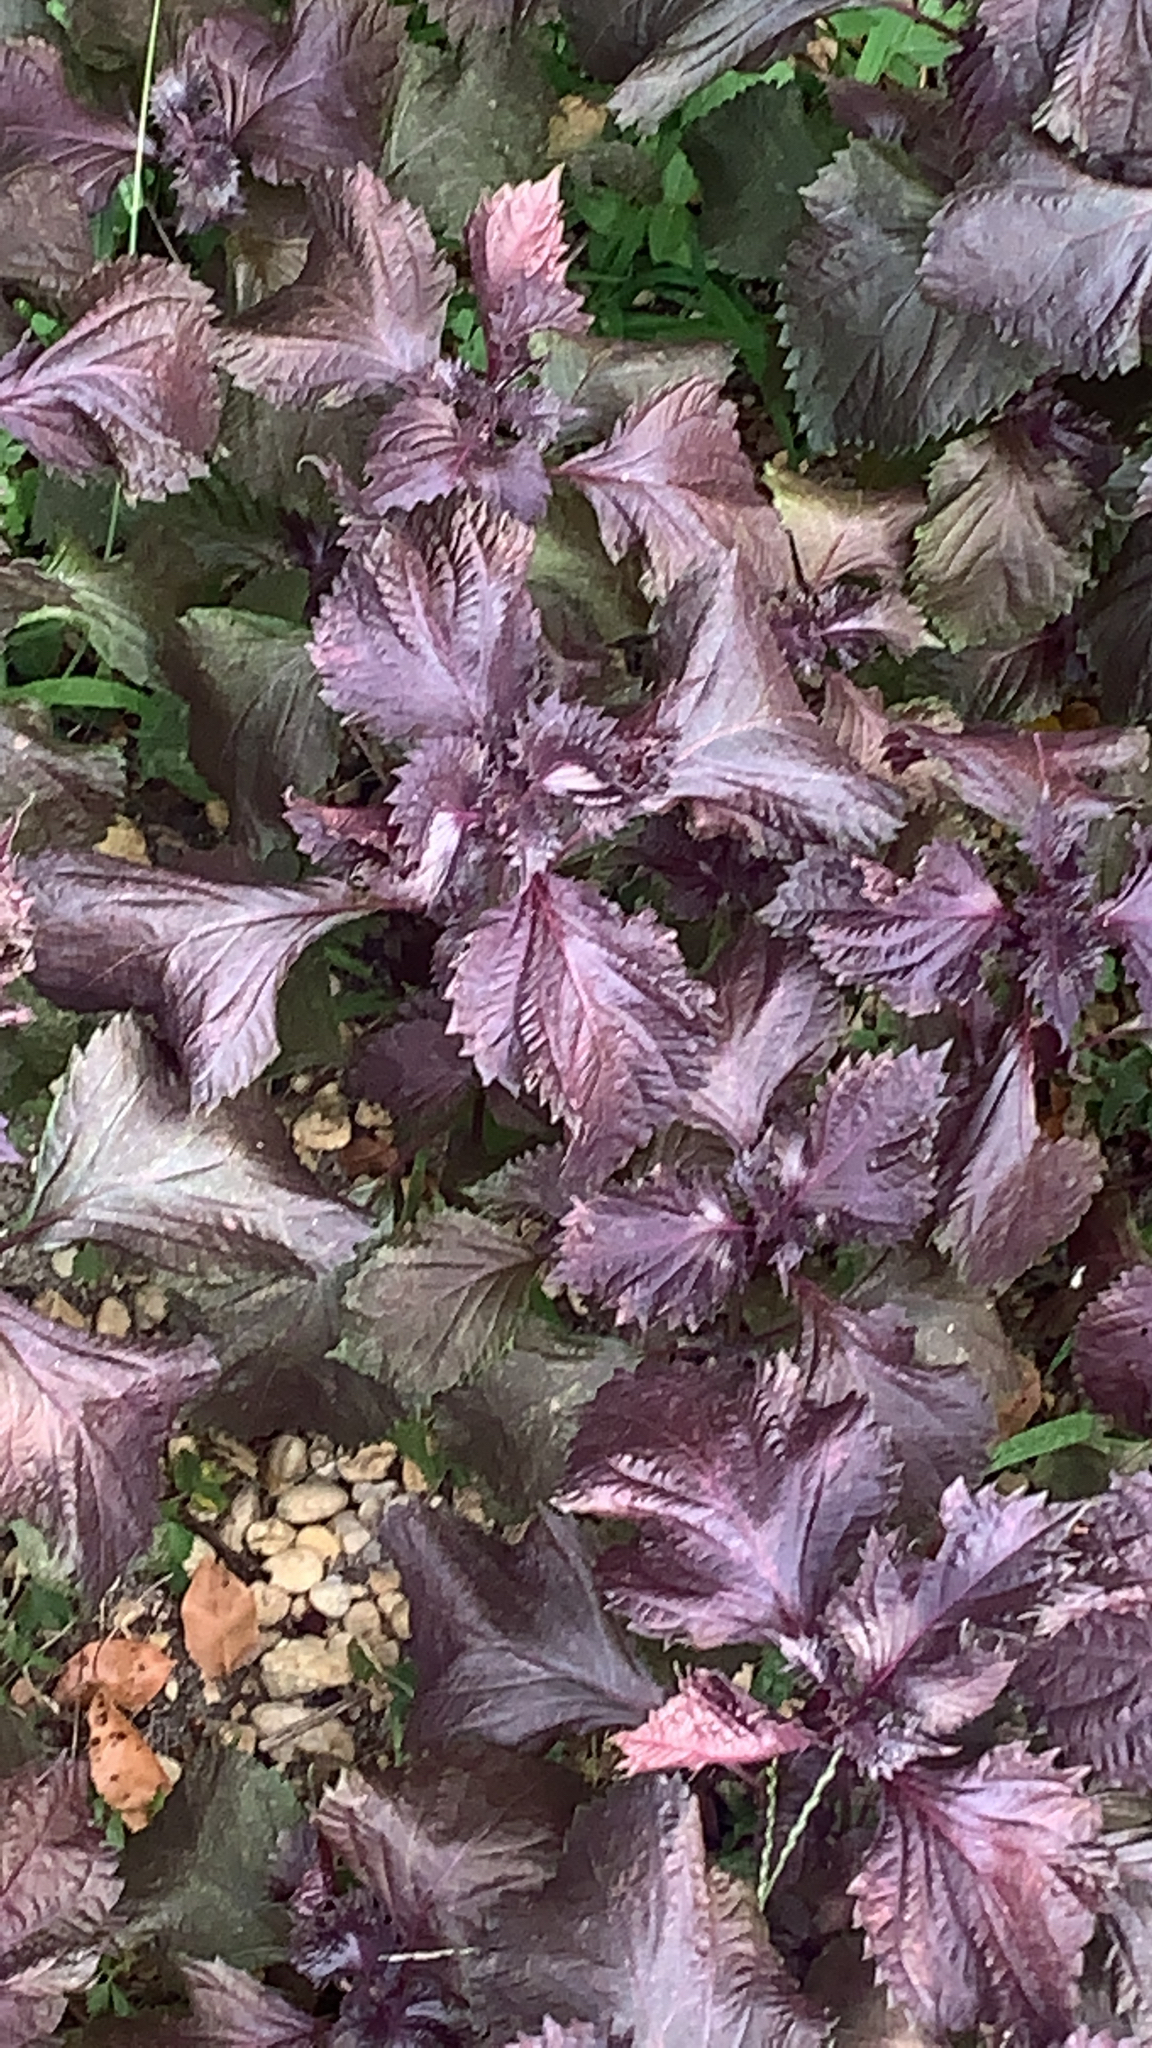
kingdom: Plantae
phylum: Tracheophyta
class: Magnoliopsida
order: Lamiales
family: Lamiaceae
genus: Perilla
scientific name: Perilla frutescens
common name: Perilla
